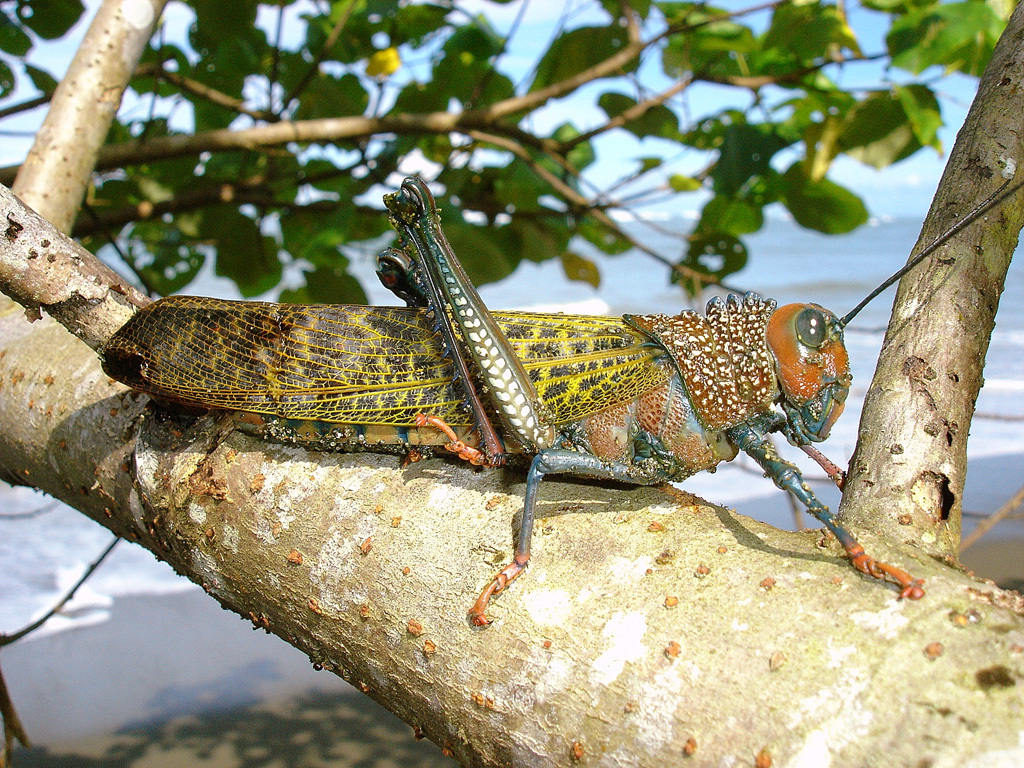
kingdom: Animalia
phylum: Arthropoda
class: Insecta
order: Orthoptera
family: Romaleidae
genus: Tropidacris
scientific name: Tropidacris cristata
